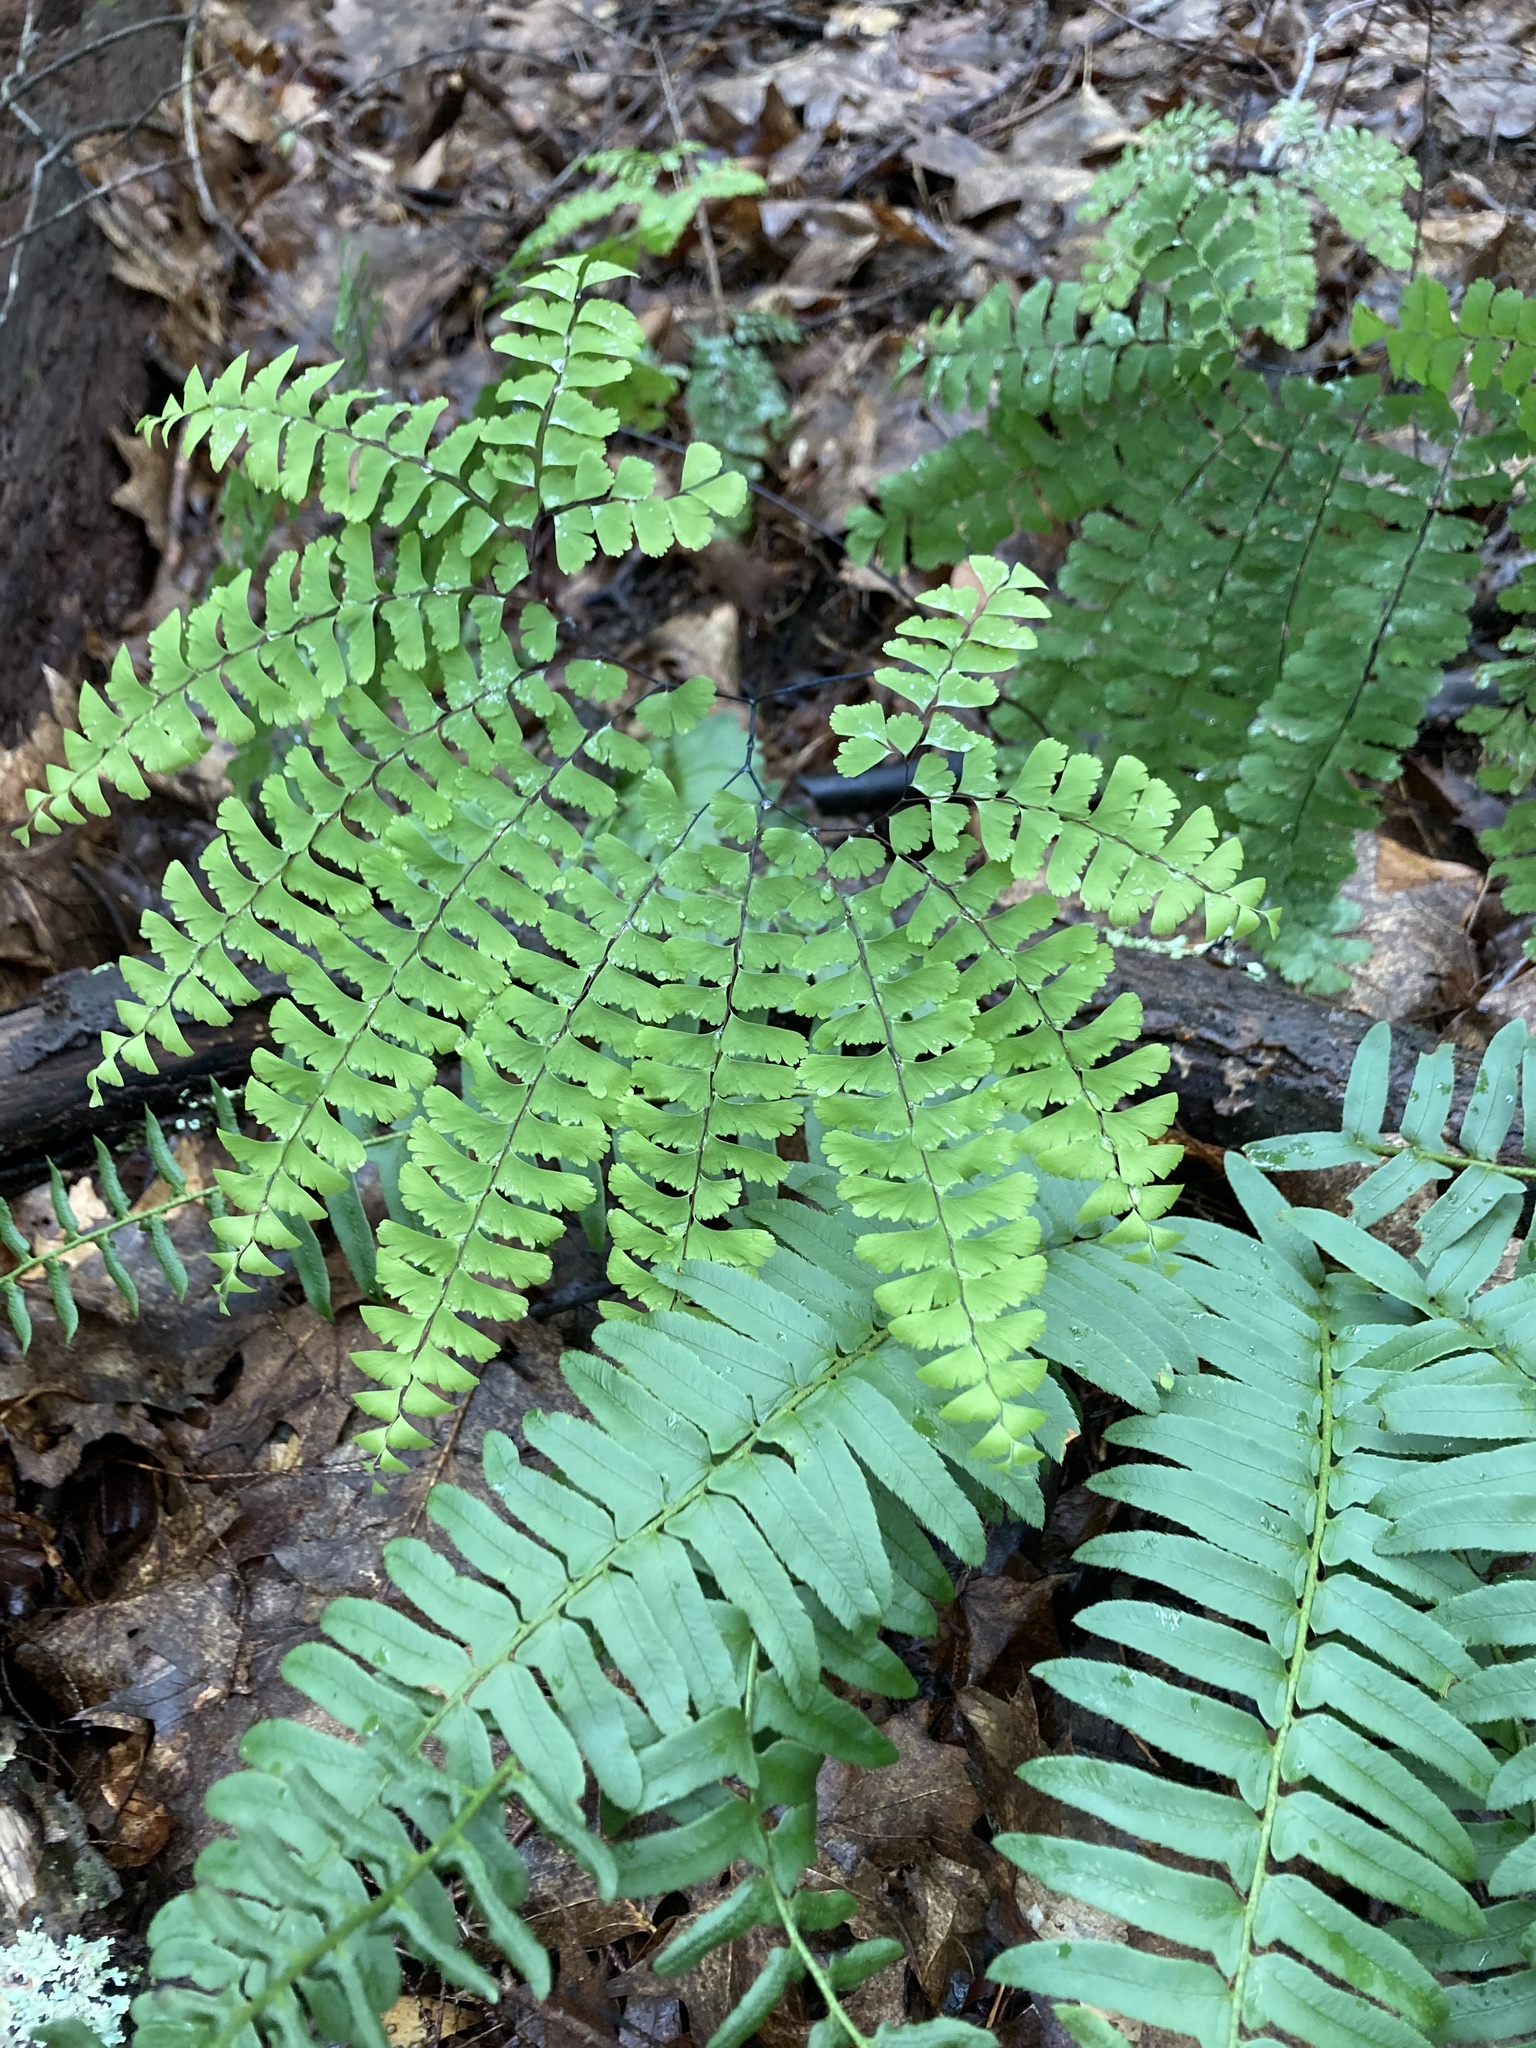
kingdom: Plantae
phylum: Tracheophyta
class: Polypodiopsida
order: Polypodiales
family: Pteridaceae
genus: Adiantum
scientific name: Adiantum pedatum
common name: Five-finger fern
